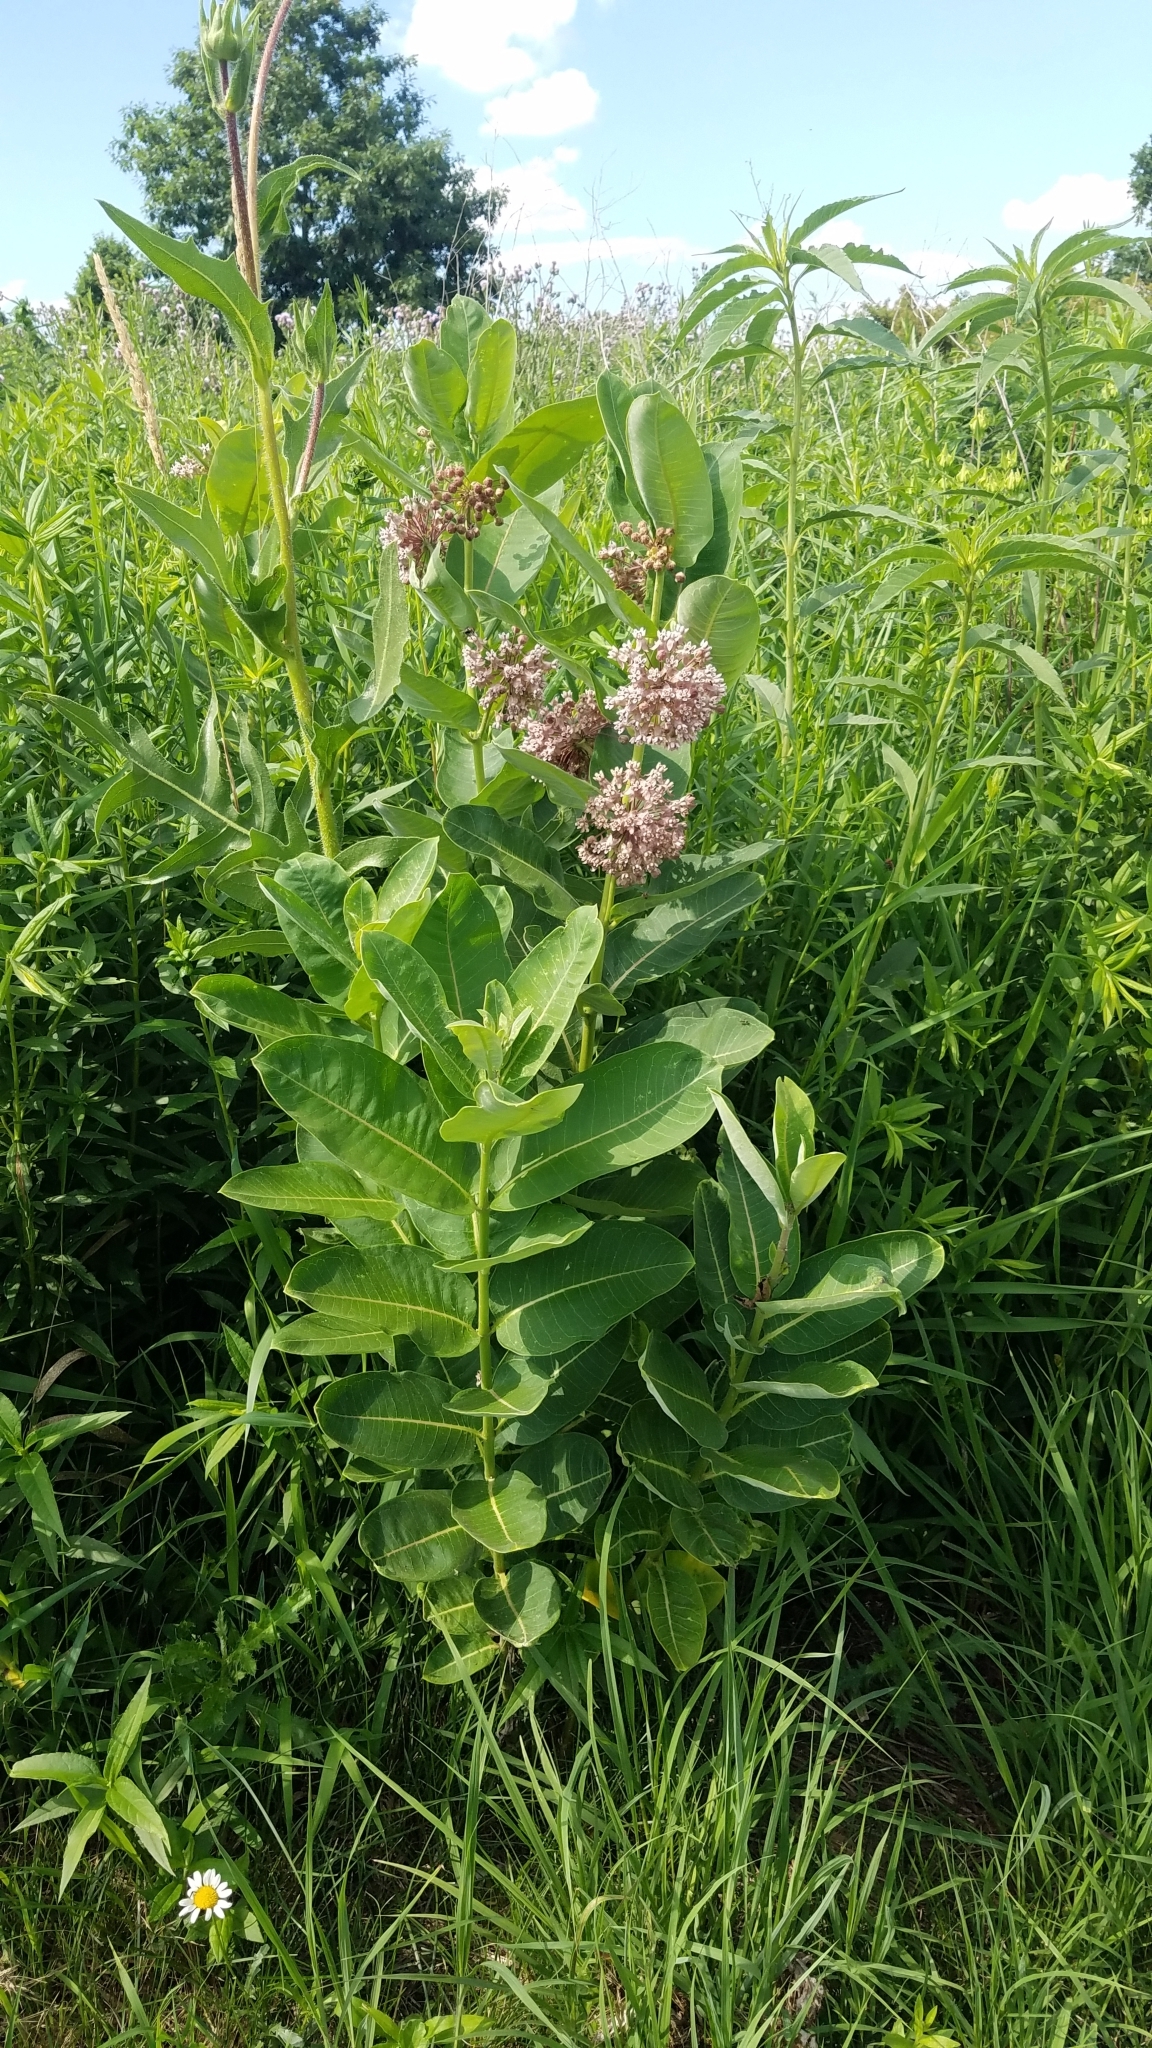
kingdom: Plantae
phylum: Tracheophyta
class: Magnoliopsida
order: Gentianales
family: Apocynaceae
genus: Asclepias
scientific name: Asclepias syriaca
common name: Common milkweed
